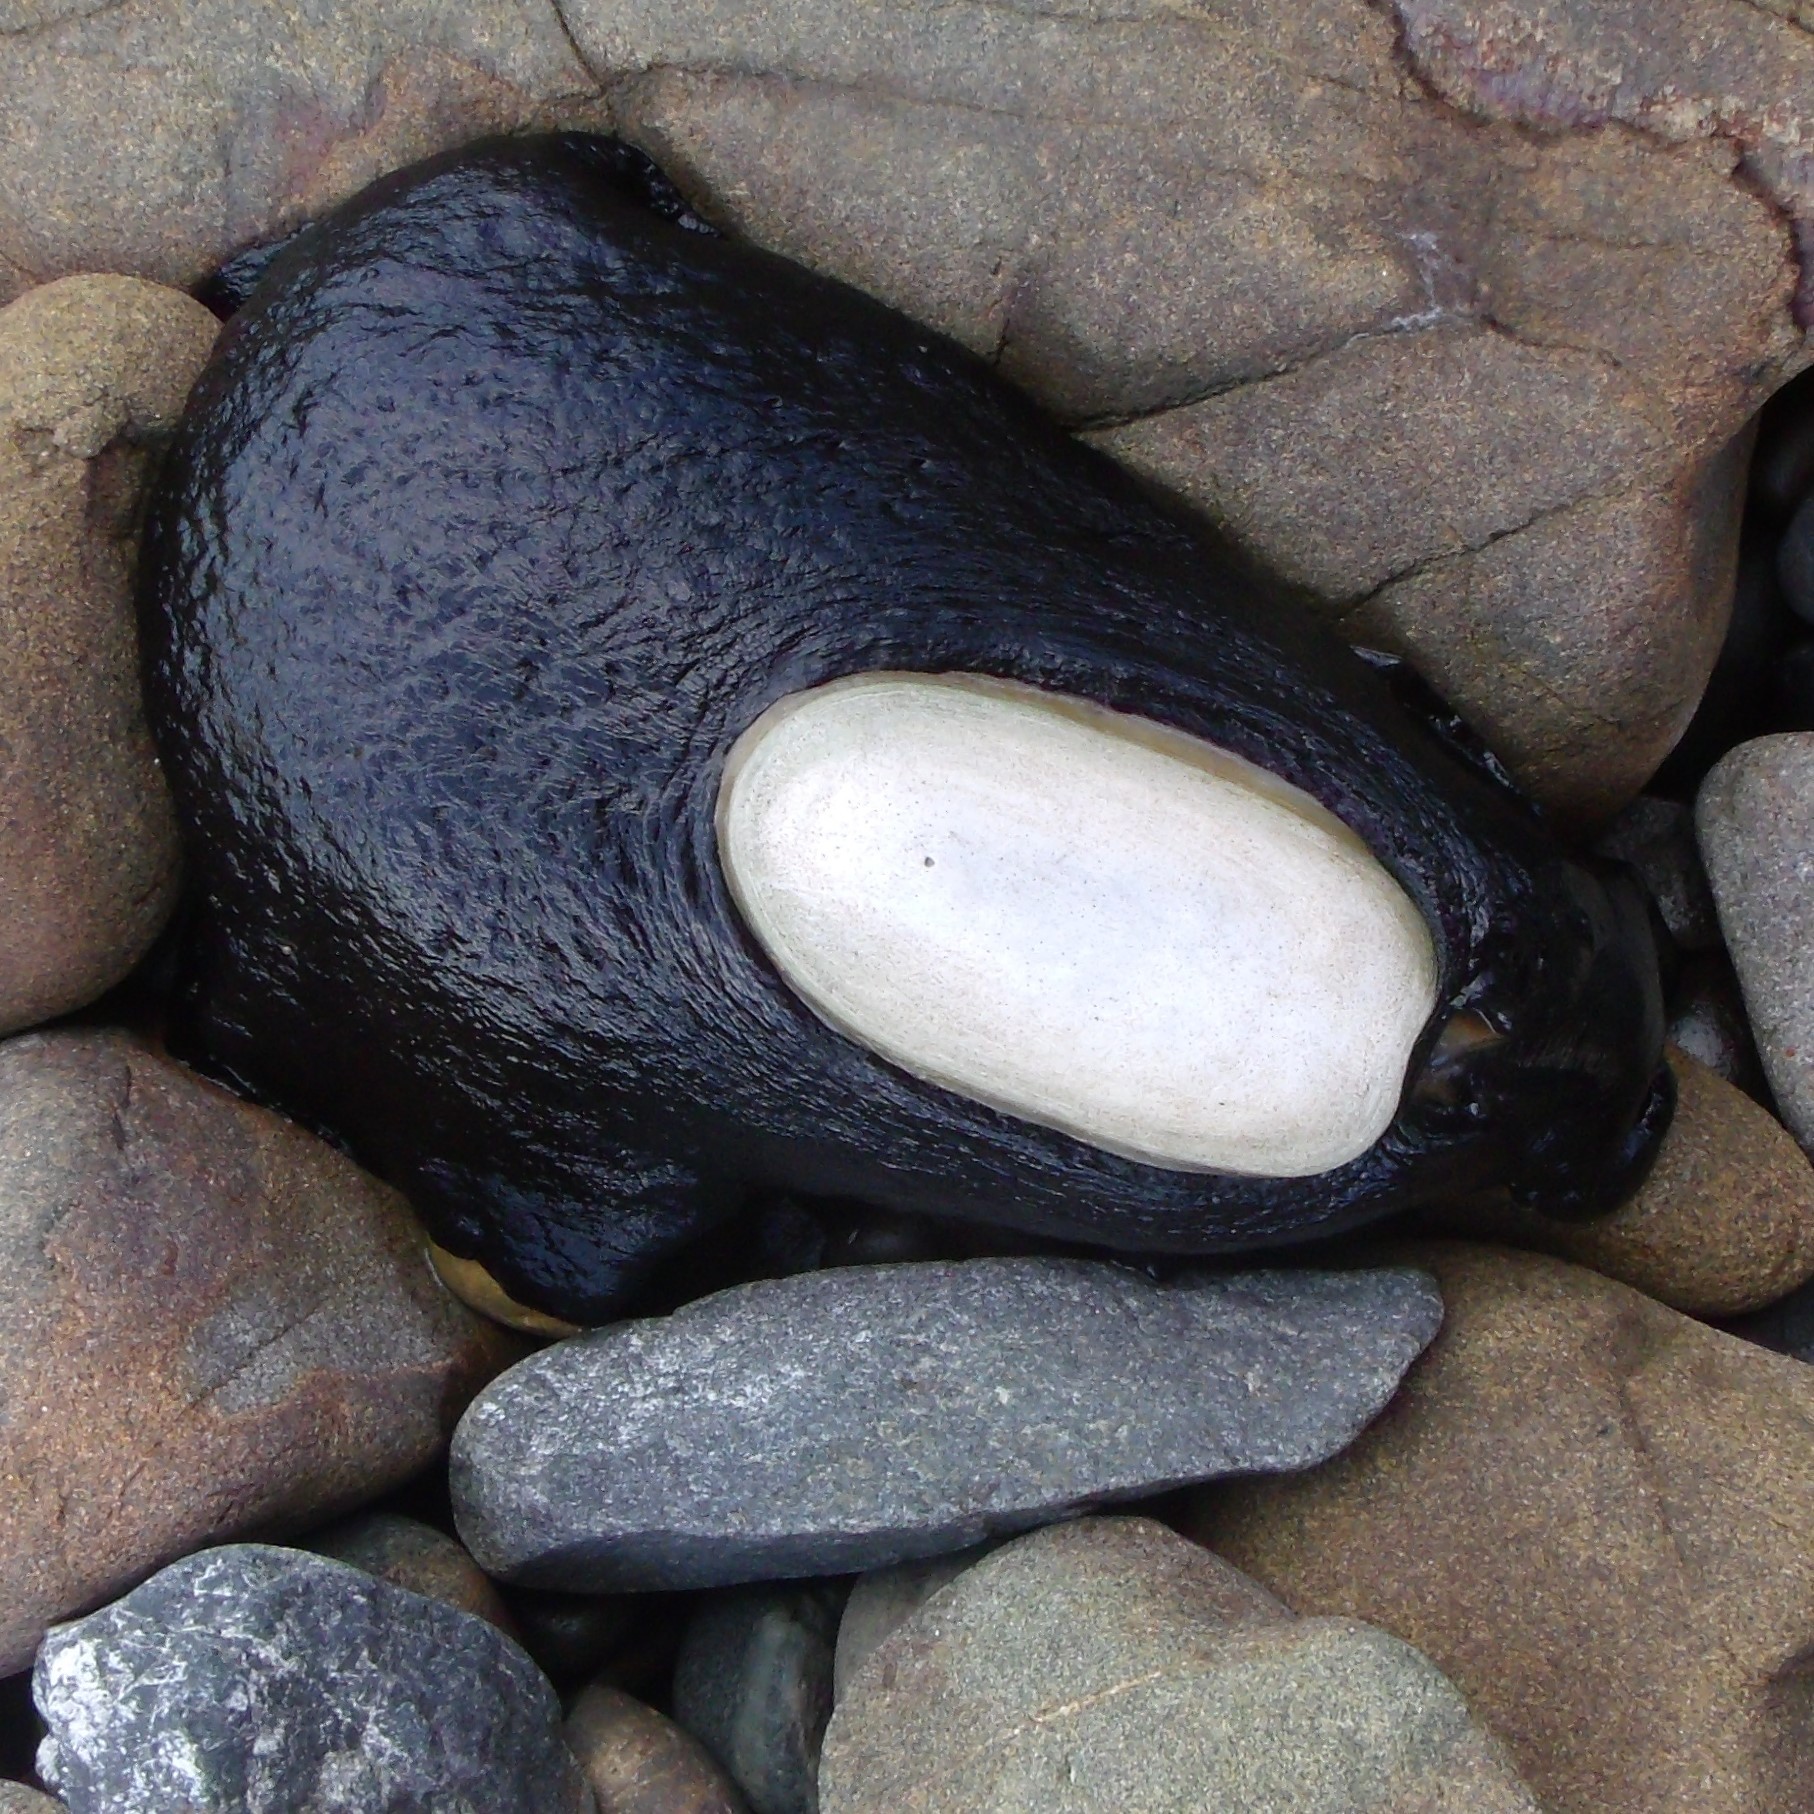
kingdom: Animalia
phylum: Mollusca
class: Gastropoda
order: Lepetellida
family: Fissurellidae
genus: Scutus
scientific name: Scutus breviculus
